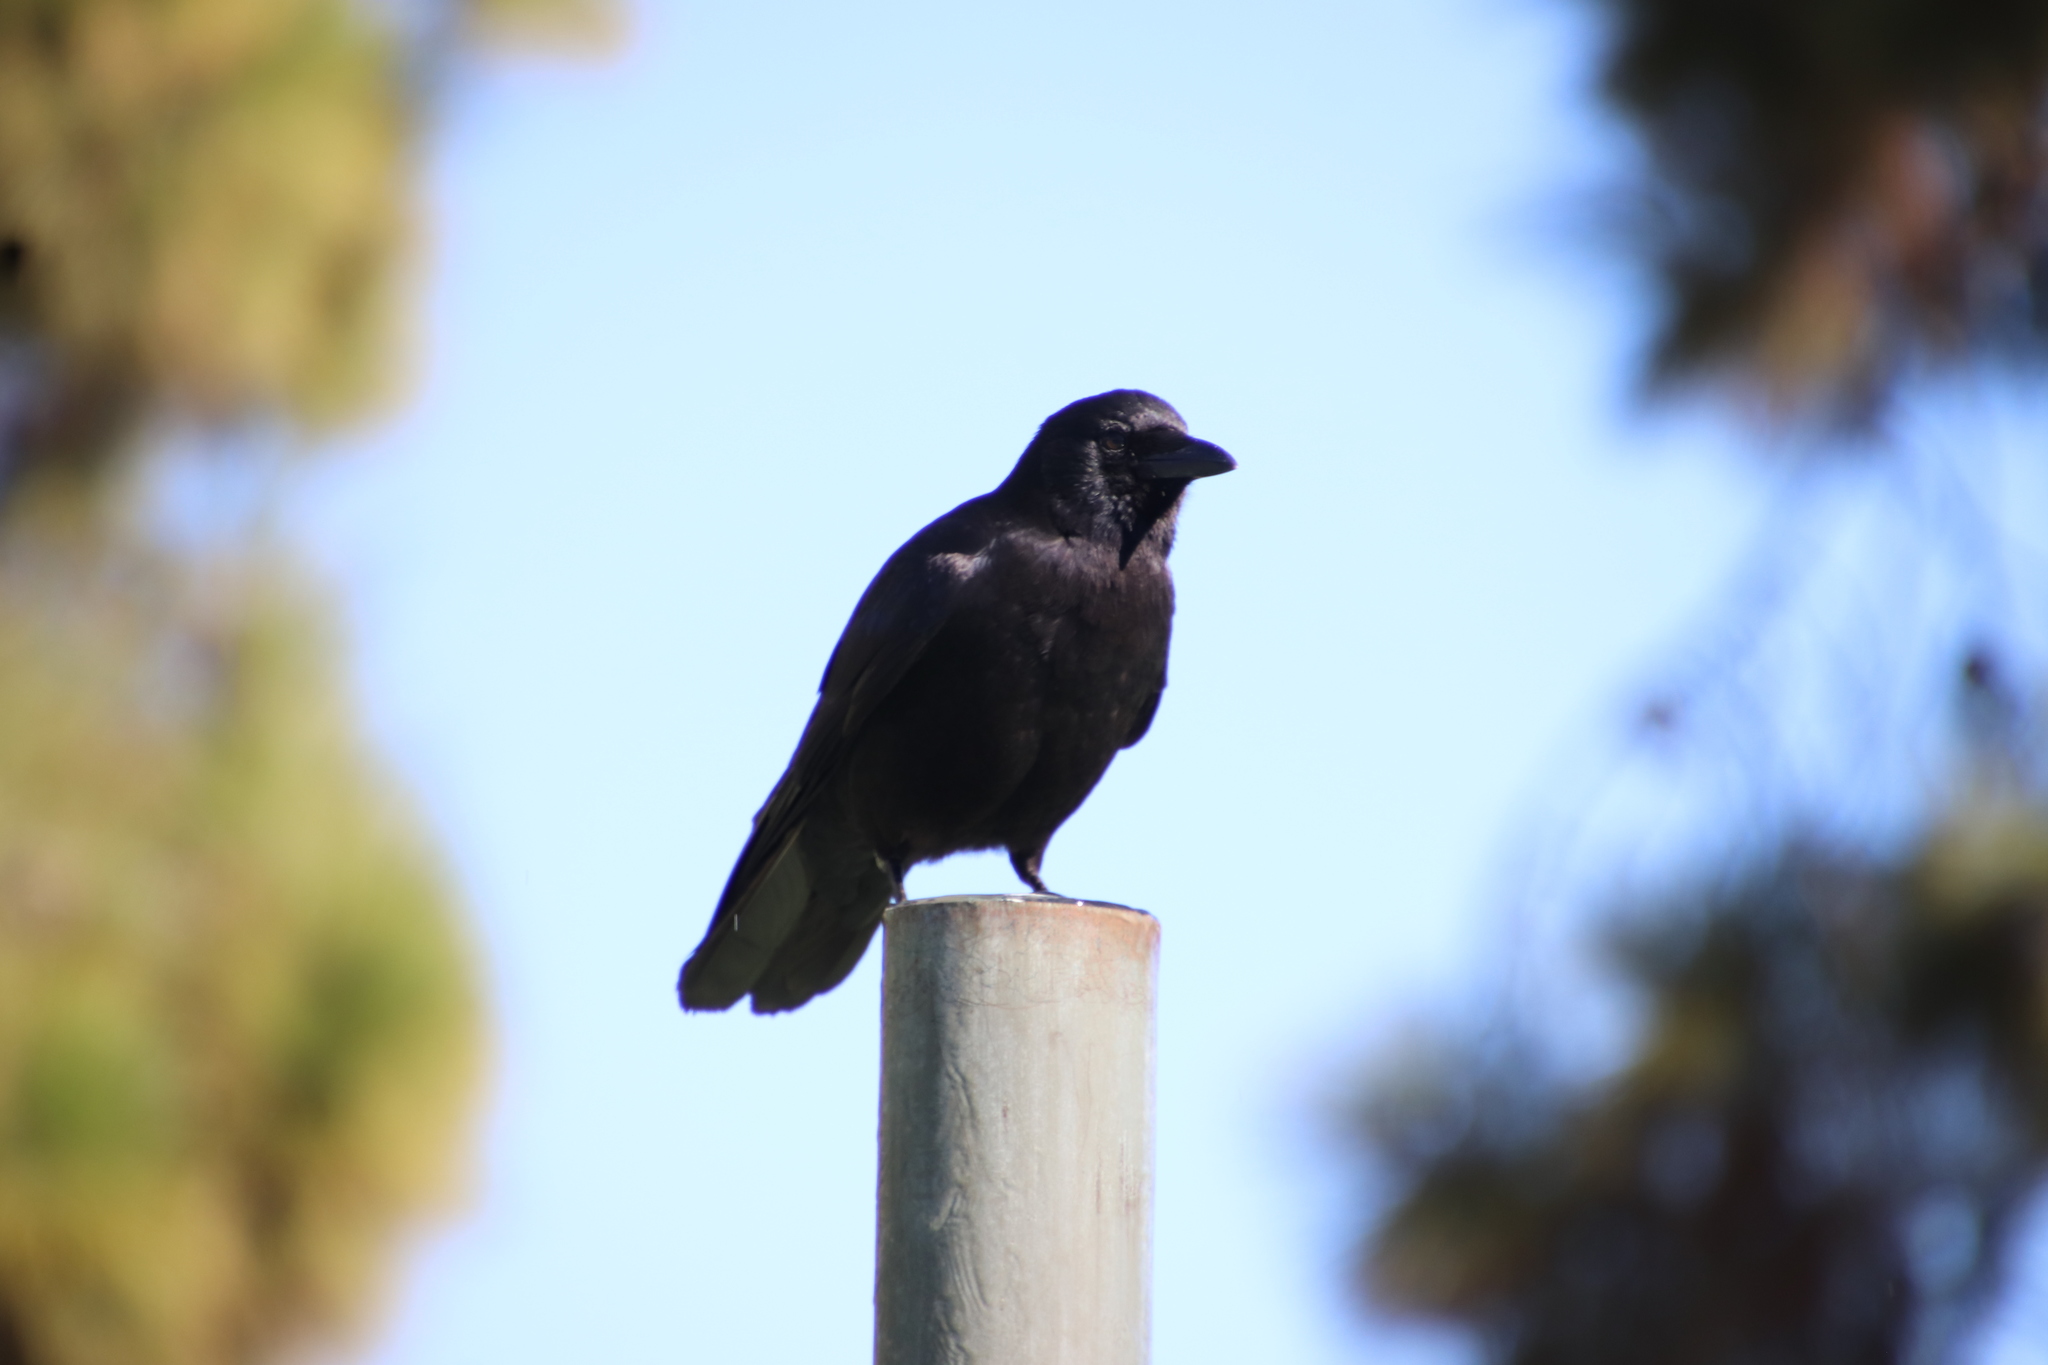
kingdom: Animalia
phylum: Chordata
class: Aves
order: Passeriformes
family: Corvidae
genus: Corvus
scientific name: Corvus brachyrhynchos
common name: American crow
